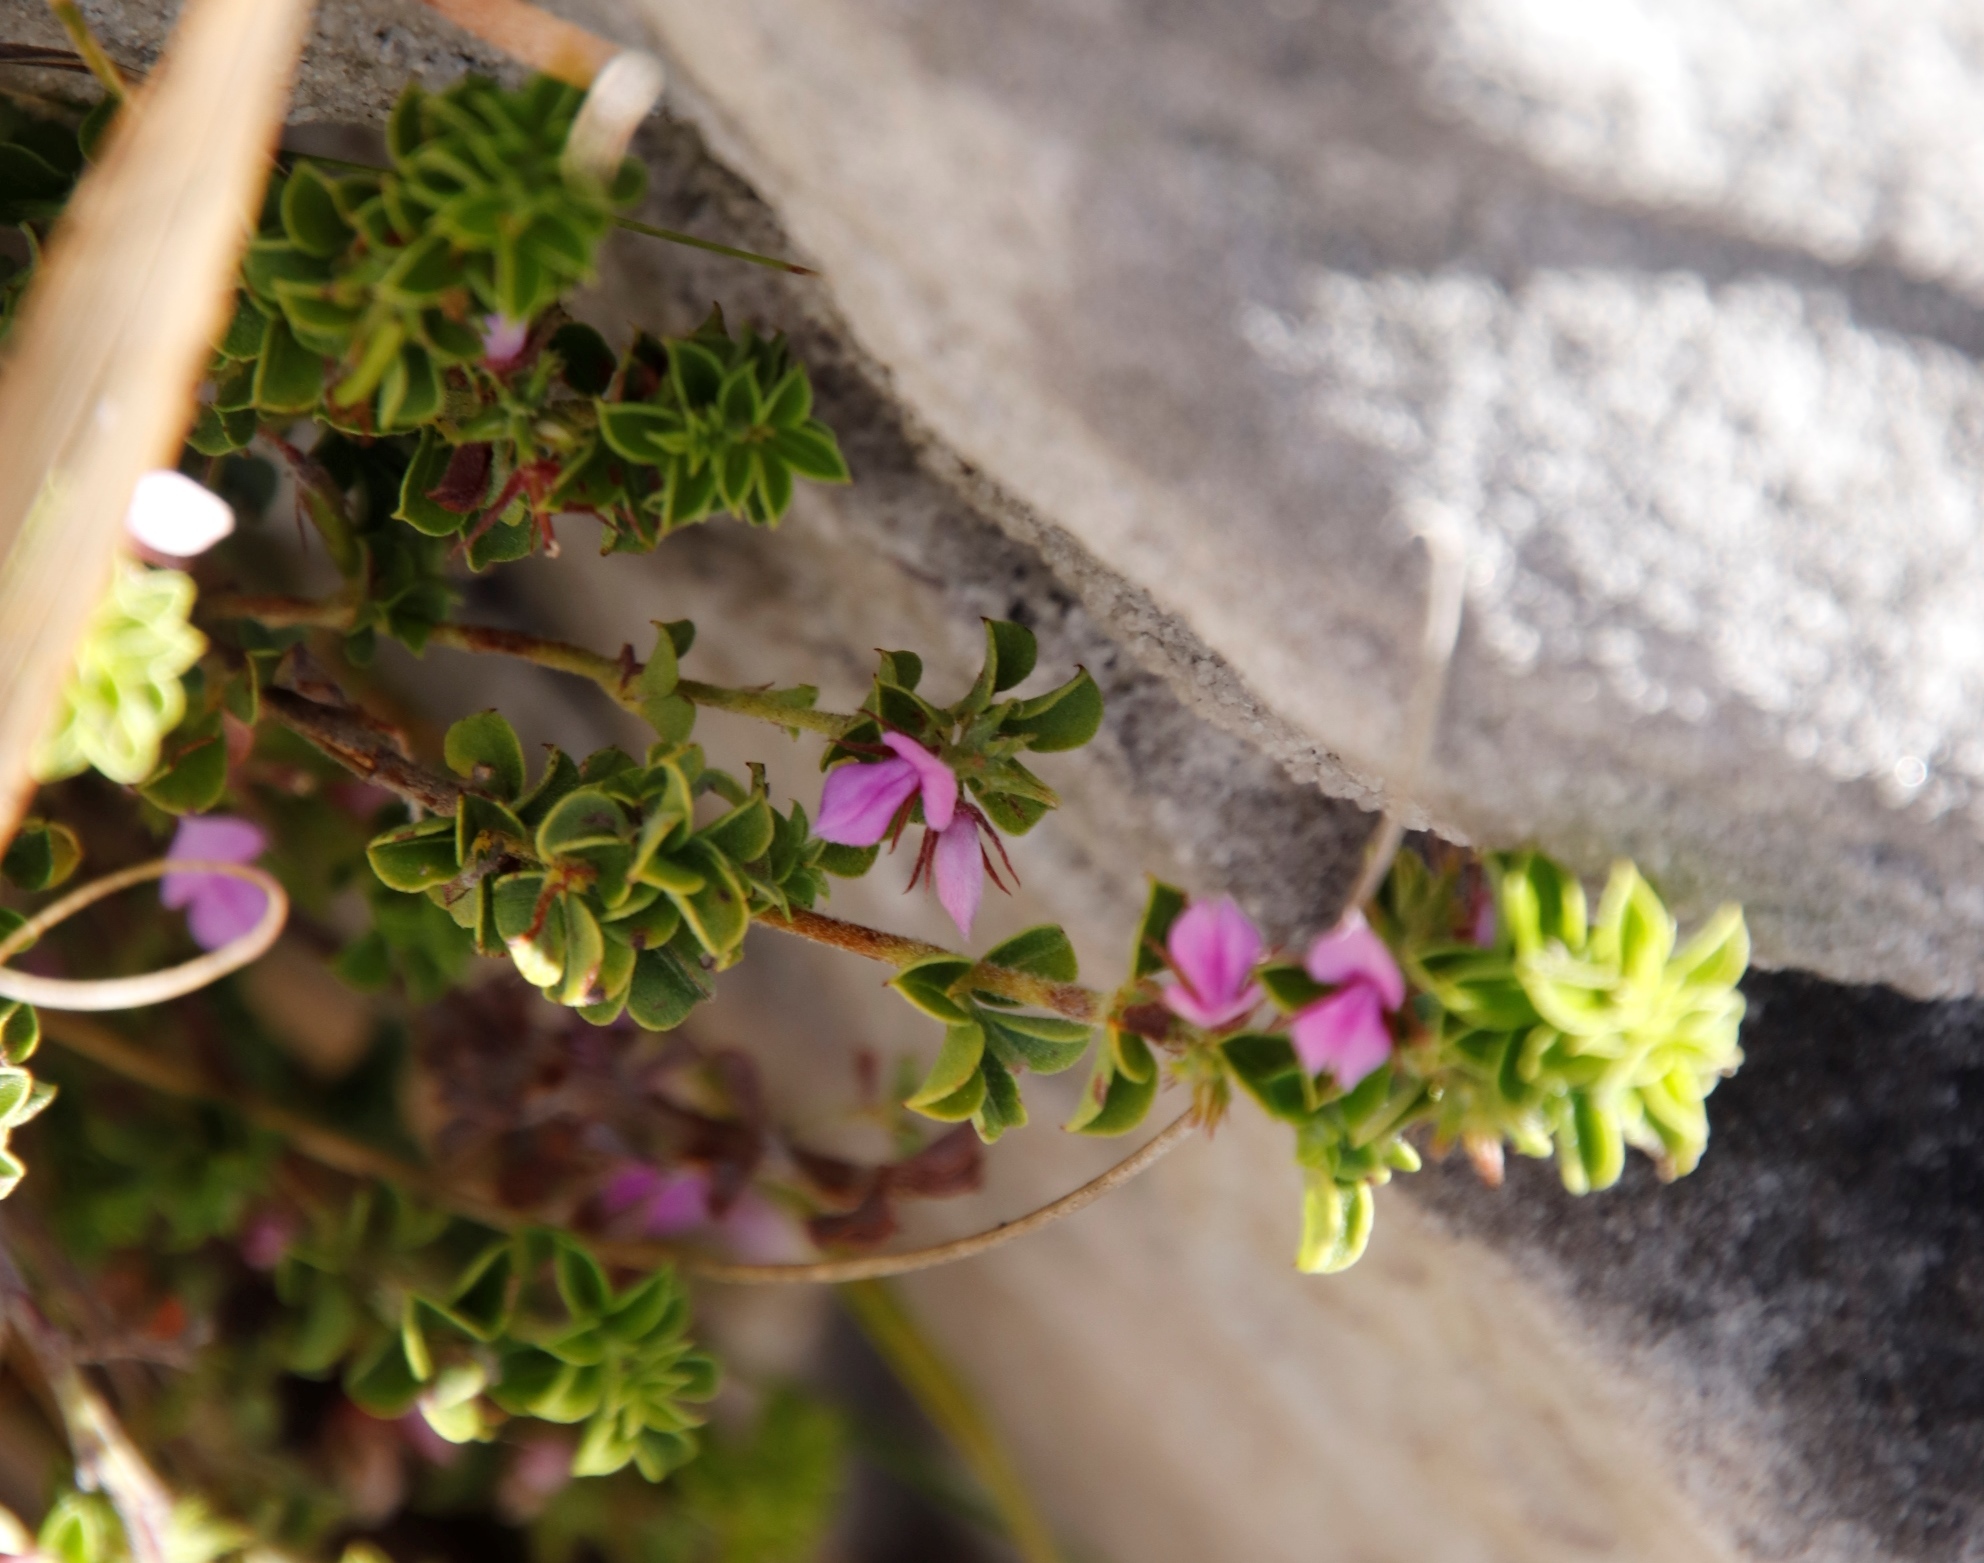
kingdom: Plantae
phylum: Tracheophyta
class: Magnoliopsida
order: Fabales
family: Fabaceae
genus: Indigofera
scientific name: Indigofera candolleana
